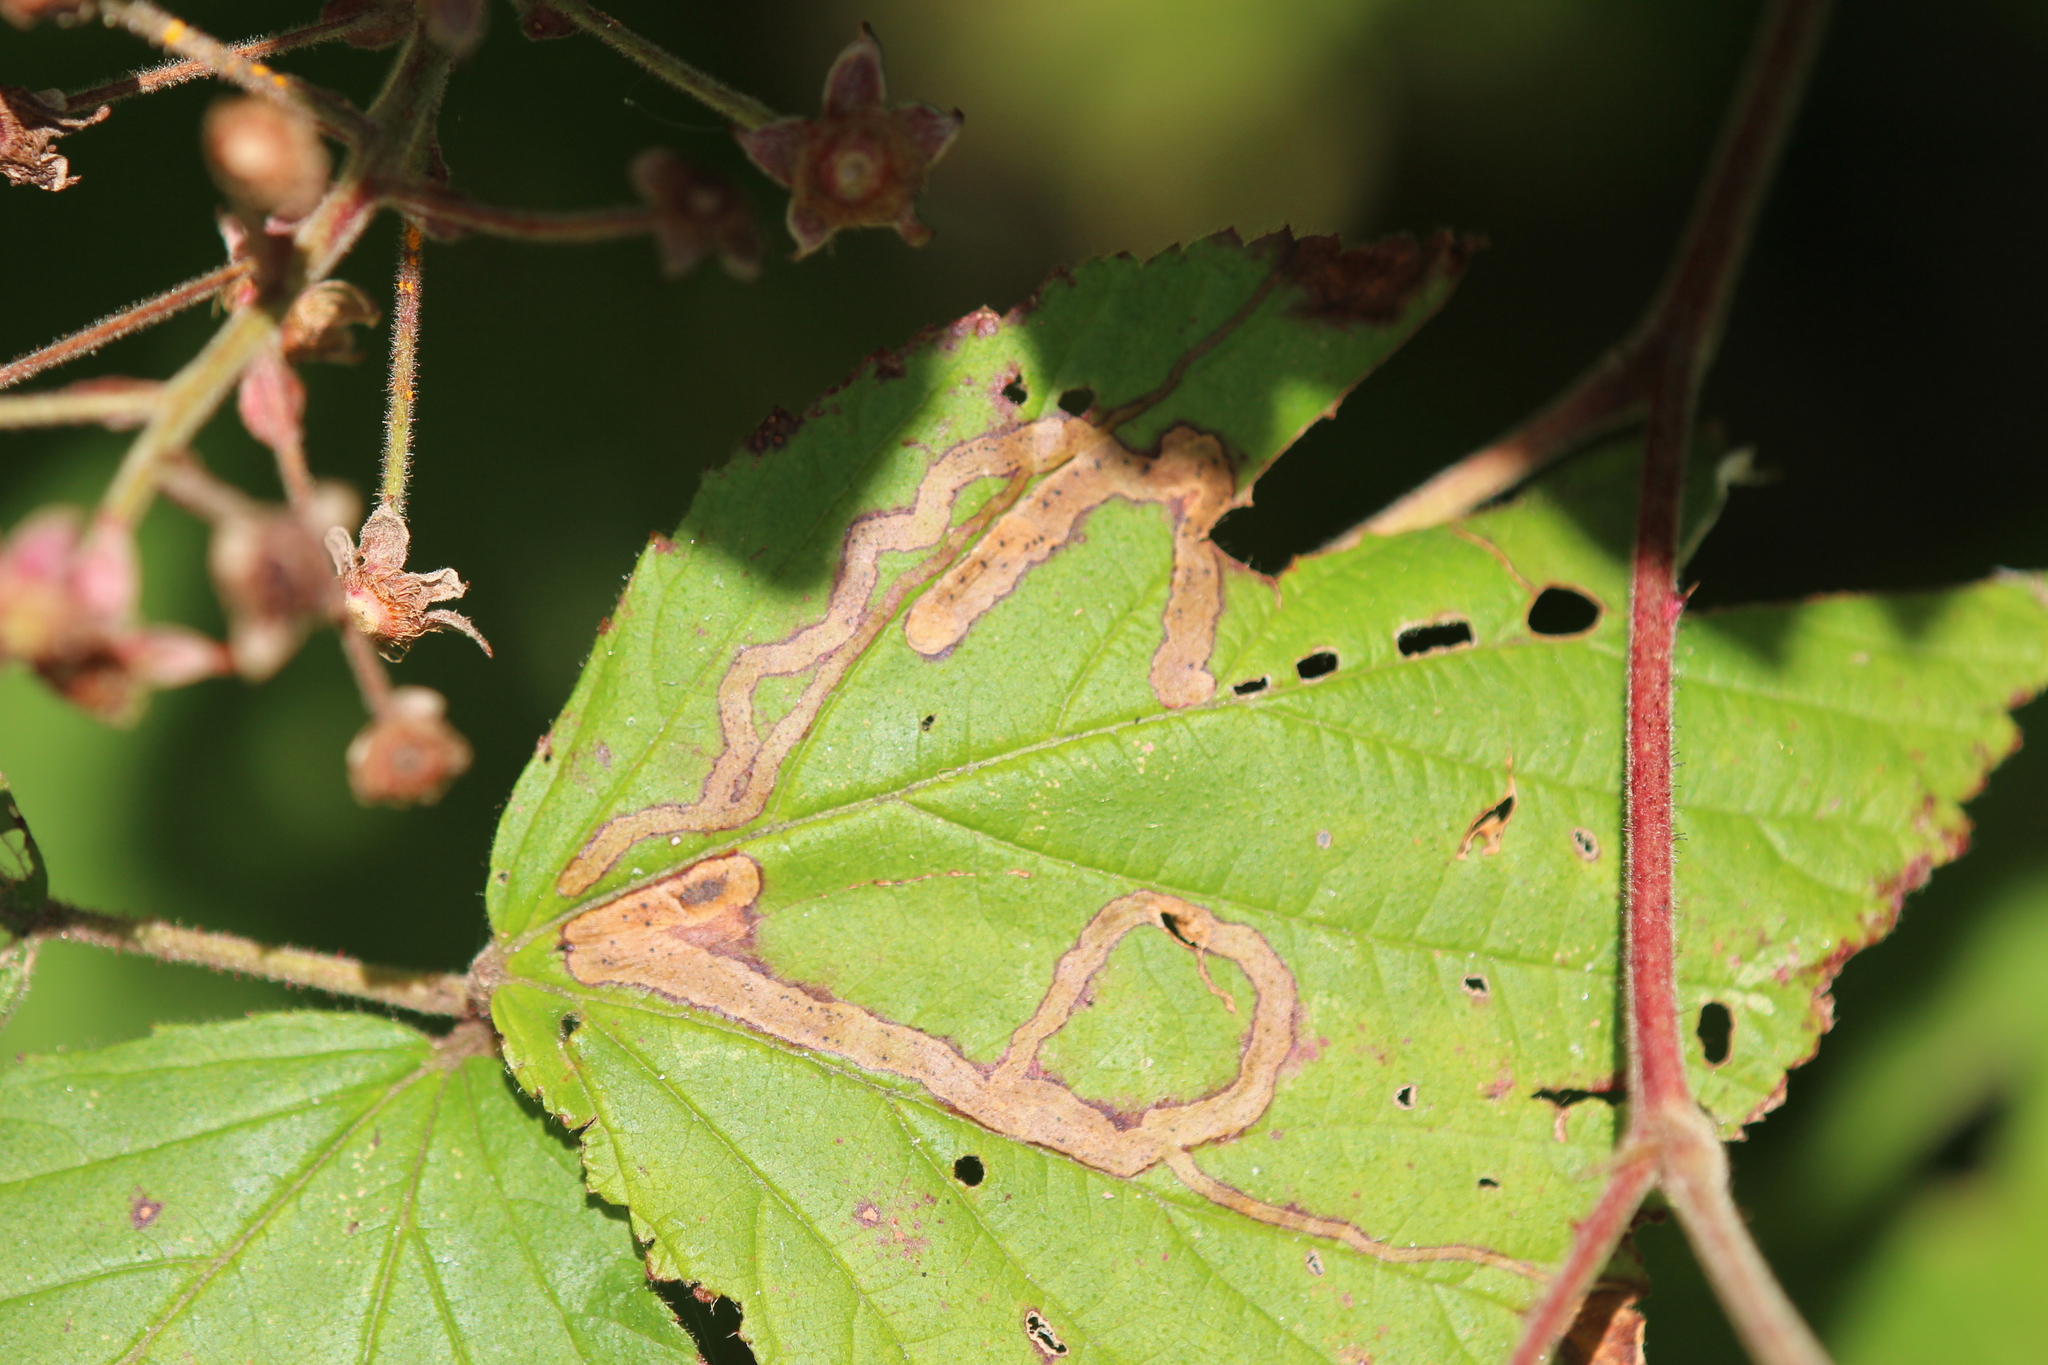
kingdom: Animalia
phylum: Arthropoda
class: Insecta
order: Diptera
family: Agromyzidae
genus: Agromyza
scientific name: Agromyza vockerothi
